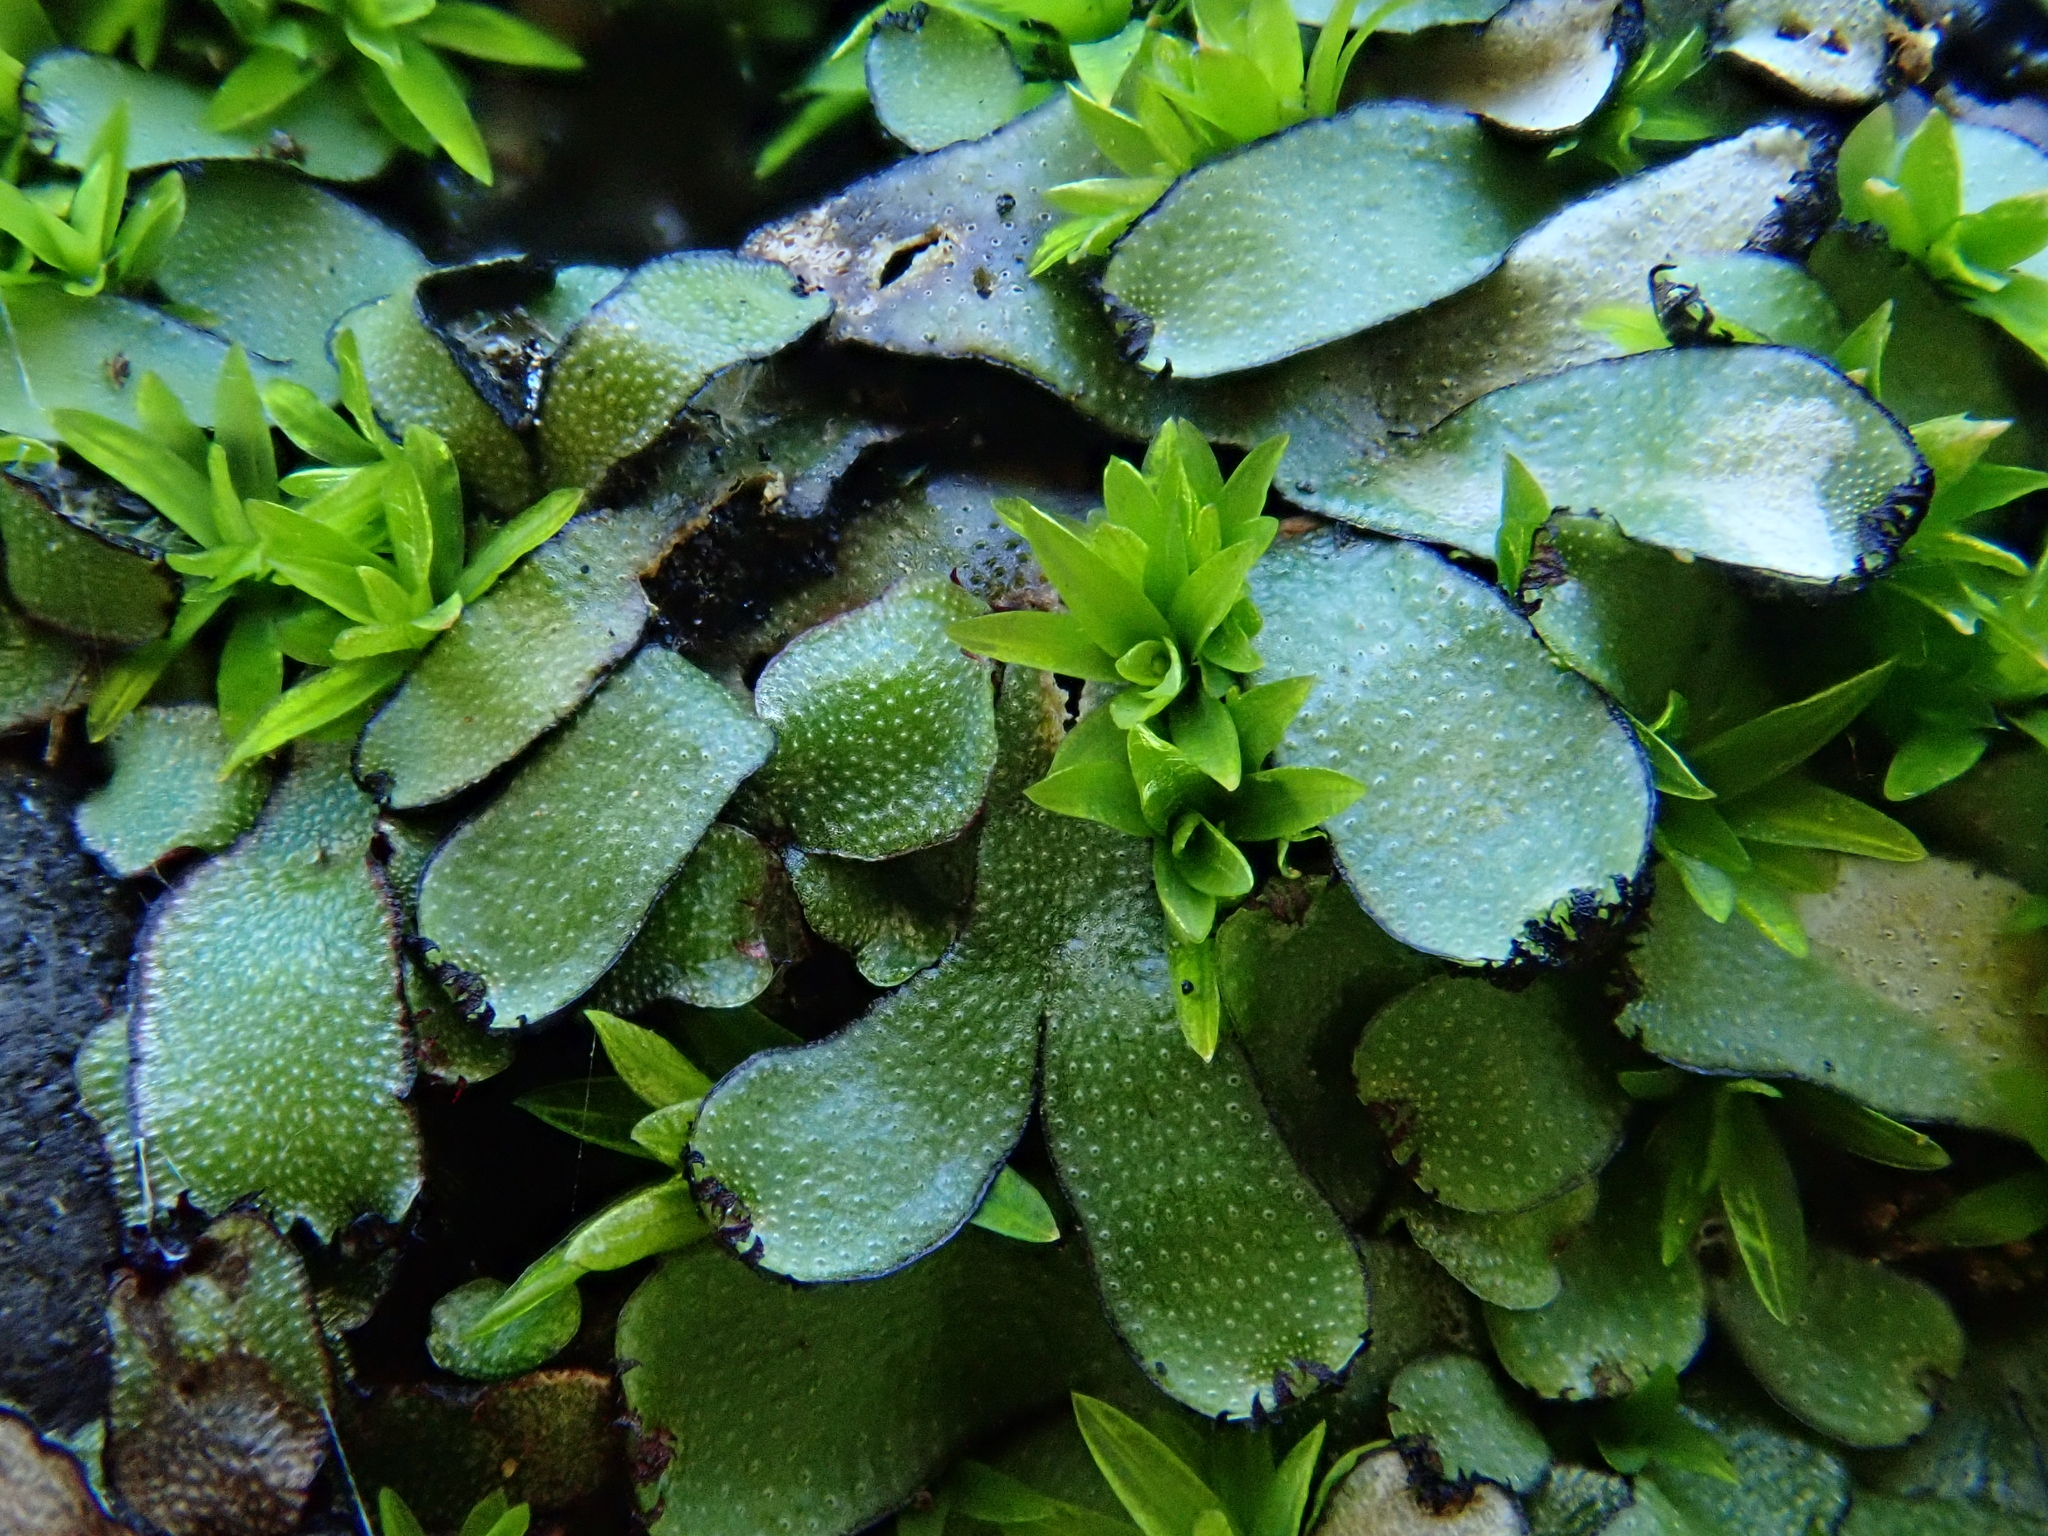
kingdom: Plantae
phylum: Marchantiophyta
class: Marchantiopsida
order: Marchantiales
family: Targioniaceae
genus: Targionia
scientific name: Targionia hypophylla
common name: Orobus-seed liverwort
